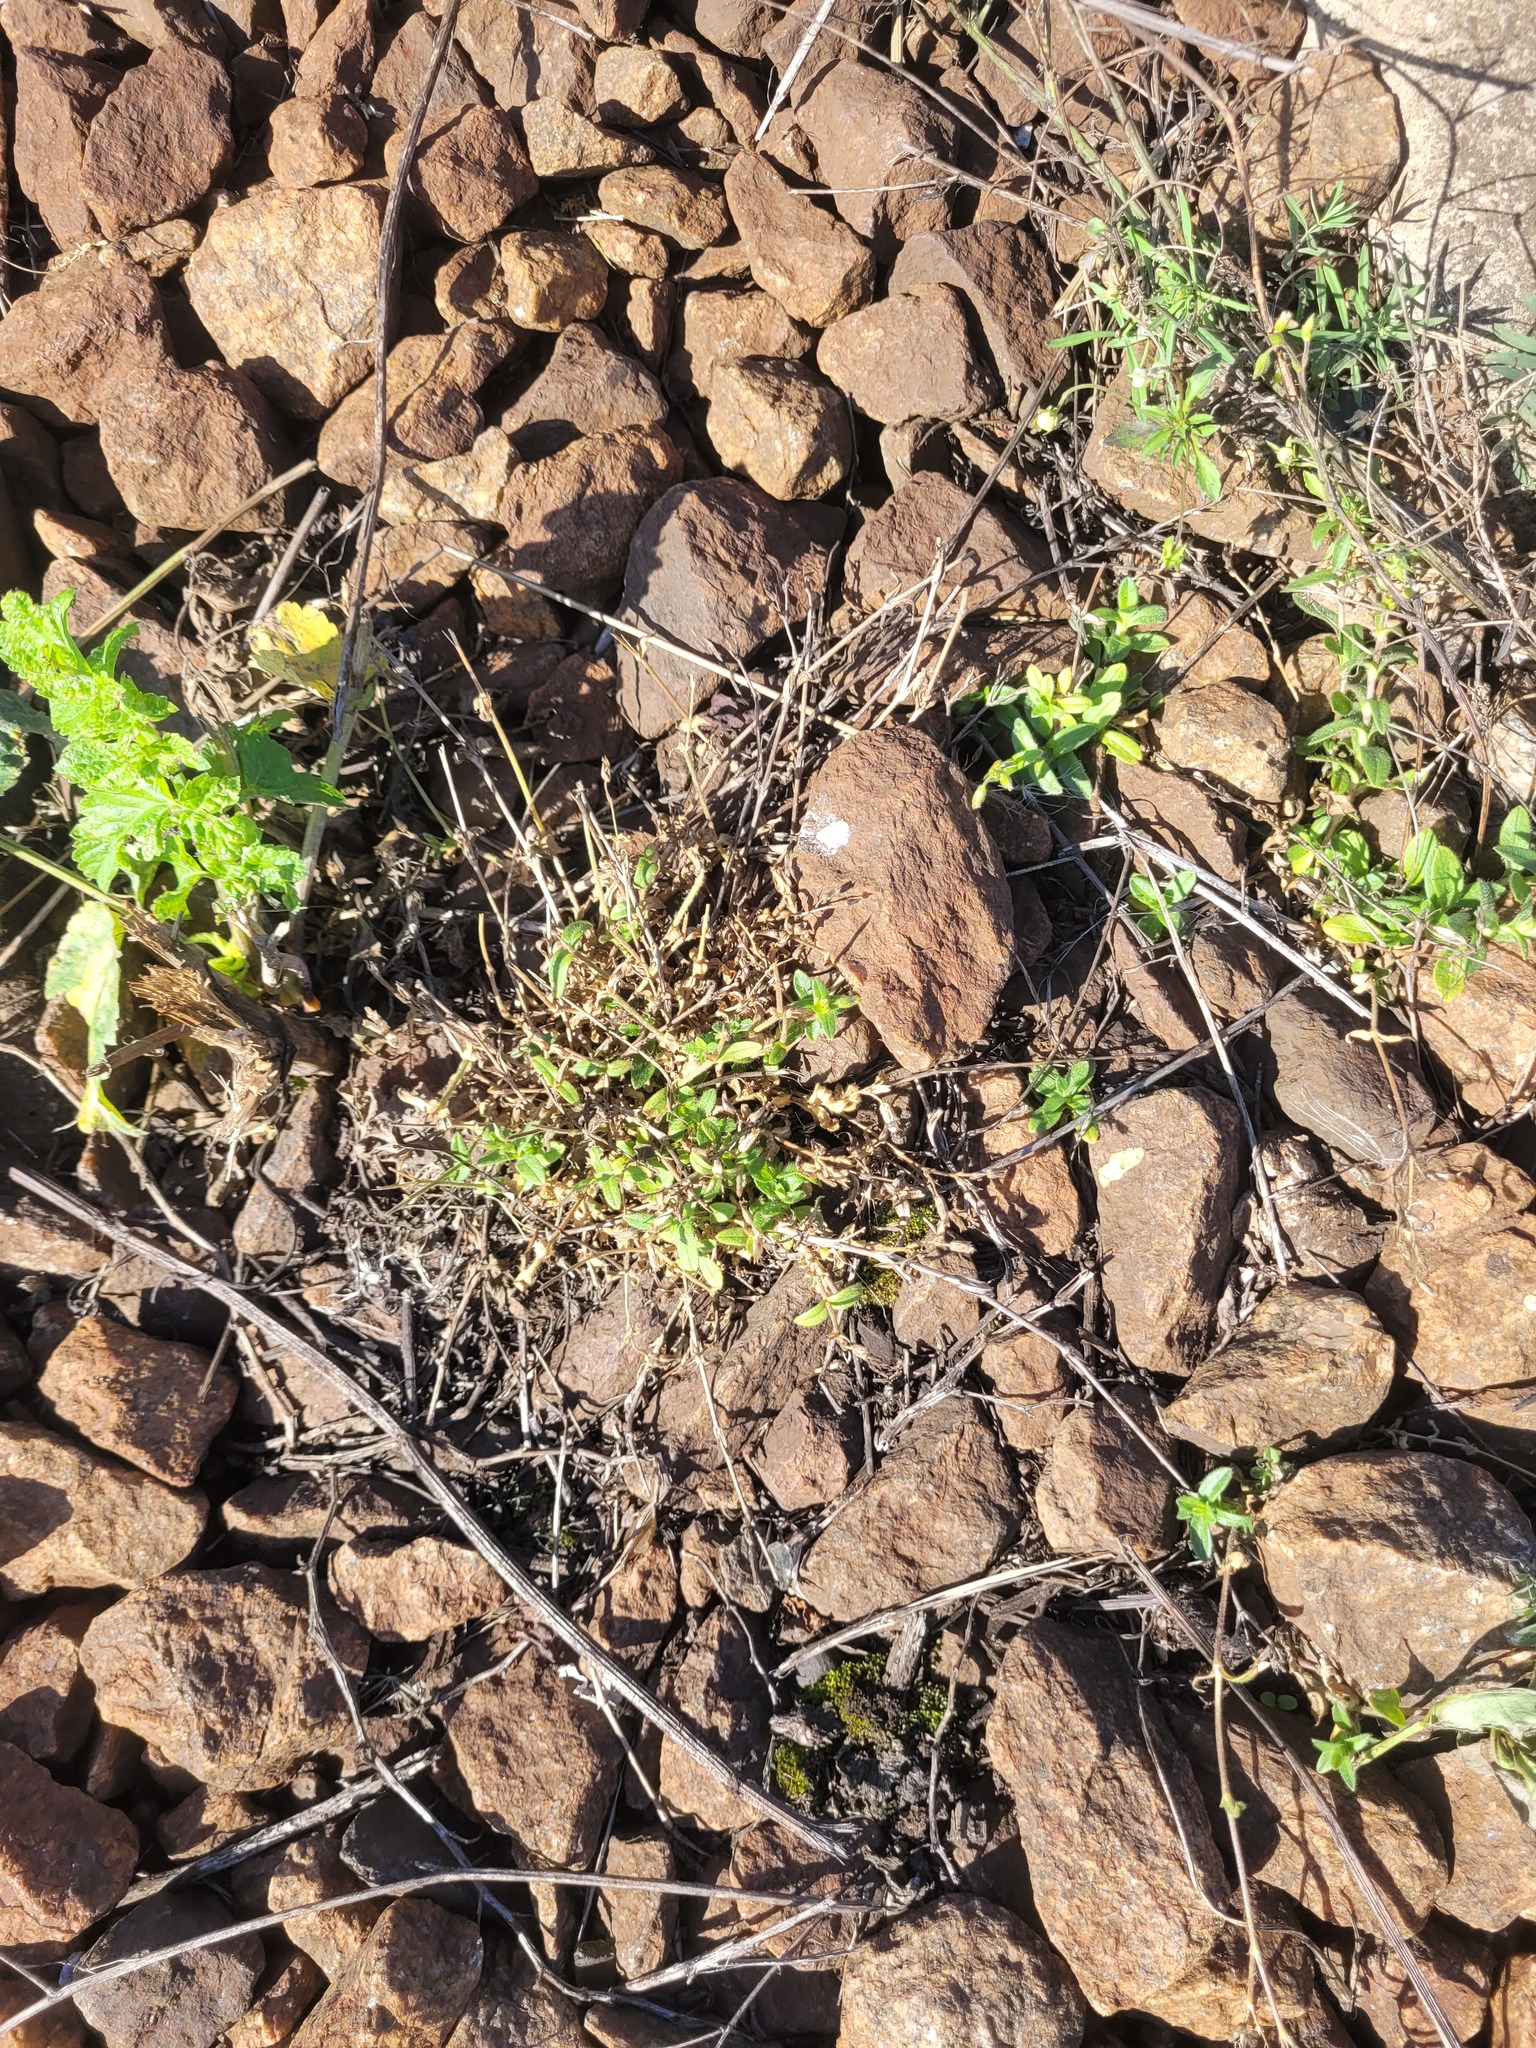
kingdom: Plantae
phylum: Tracheophyta
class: Magnoliopsida
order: Caryophyllales
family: Caryophyllaceae
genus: Cerastium
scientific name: Cerastium holosteoides
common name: Big chickweed
